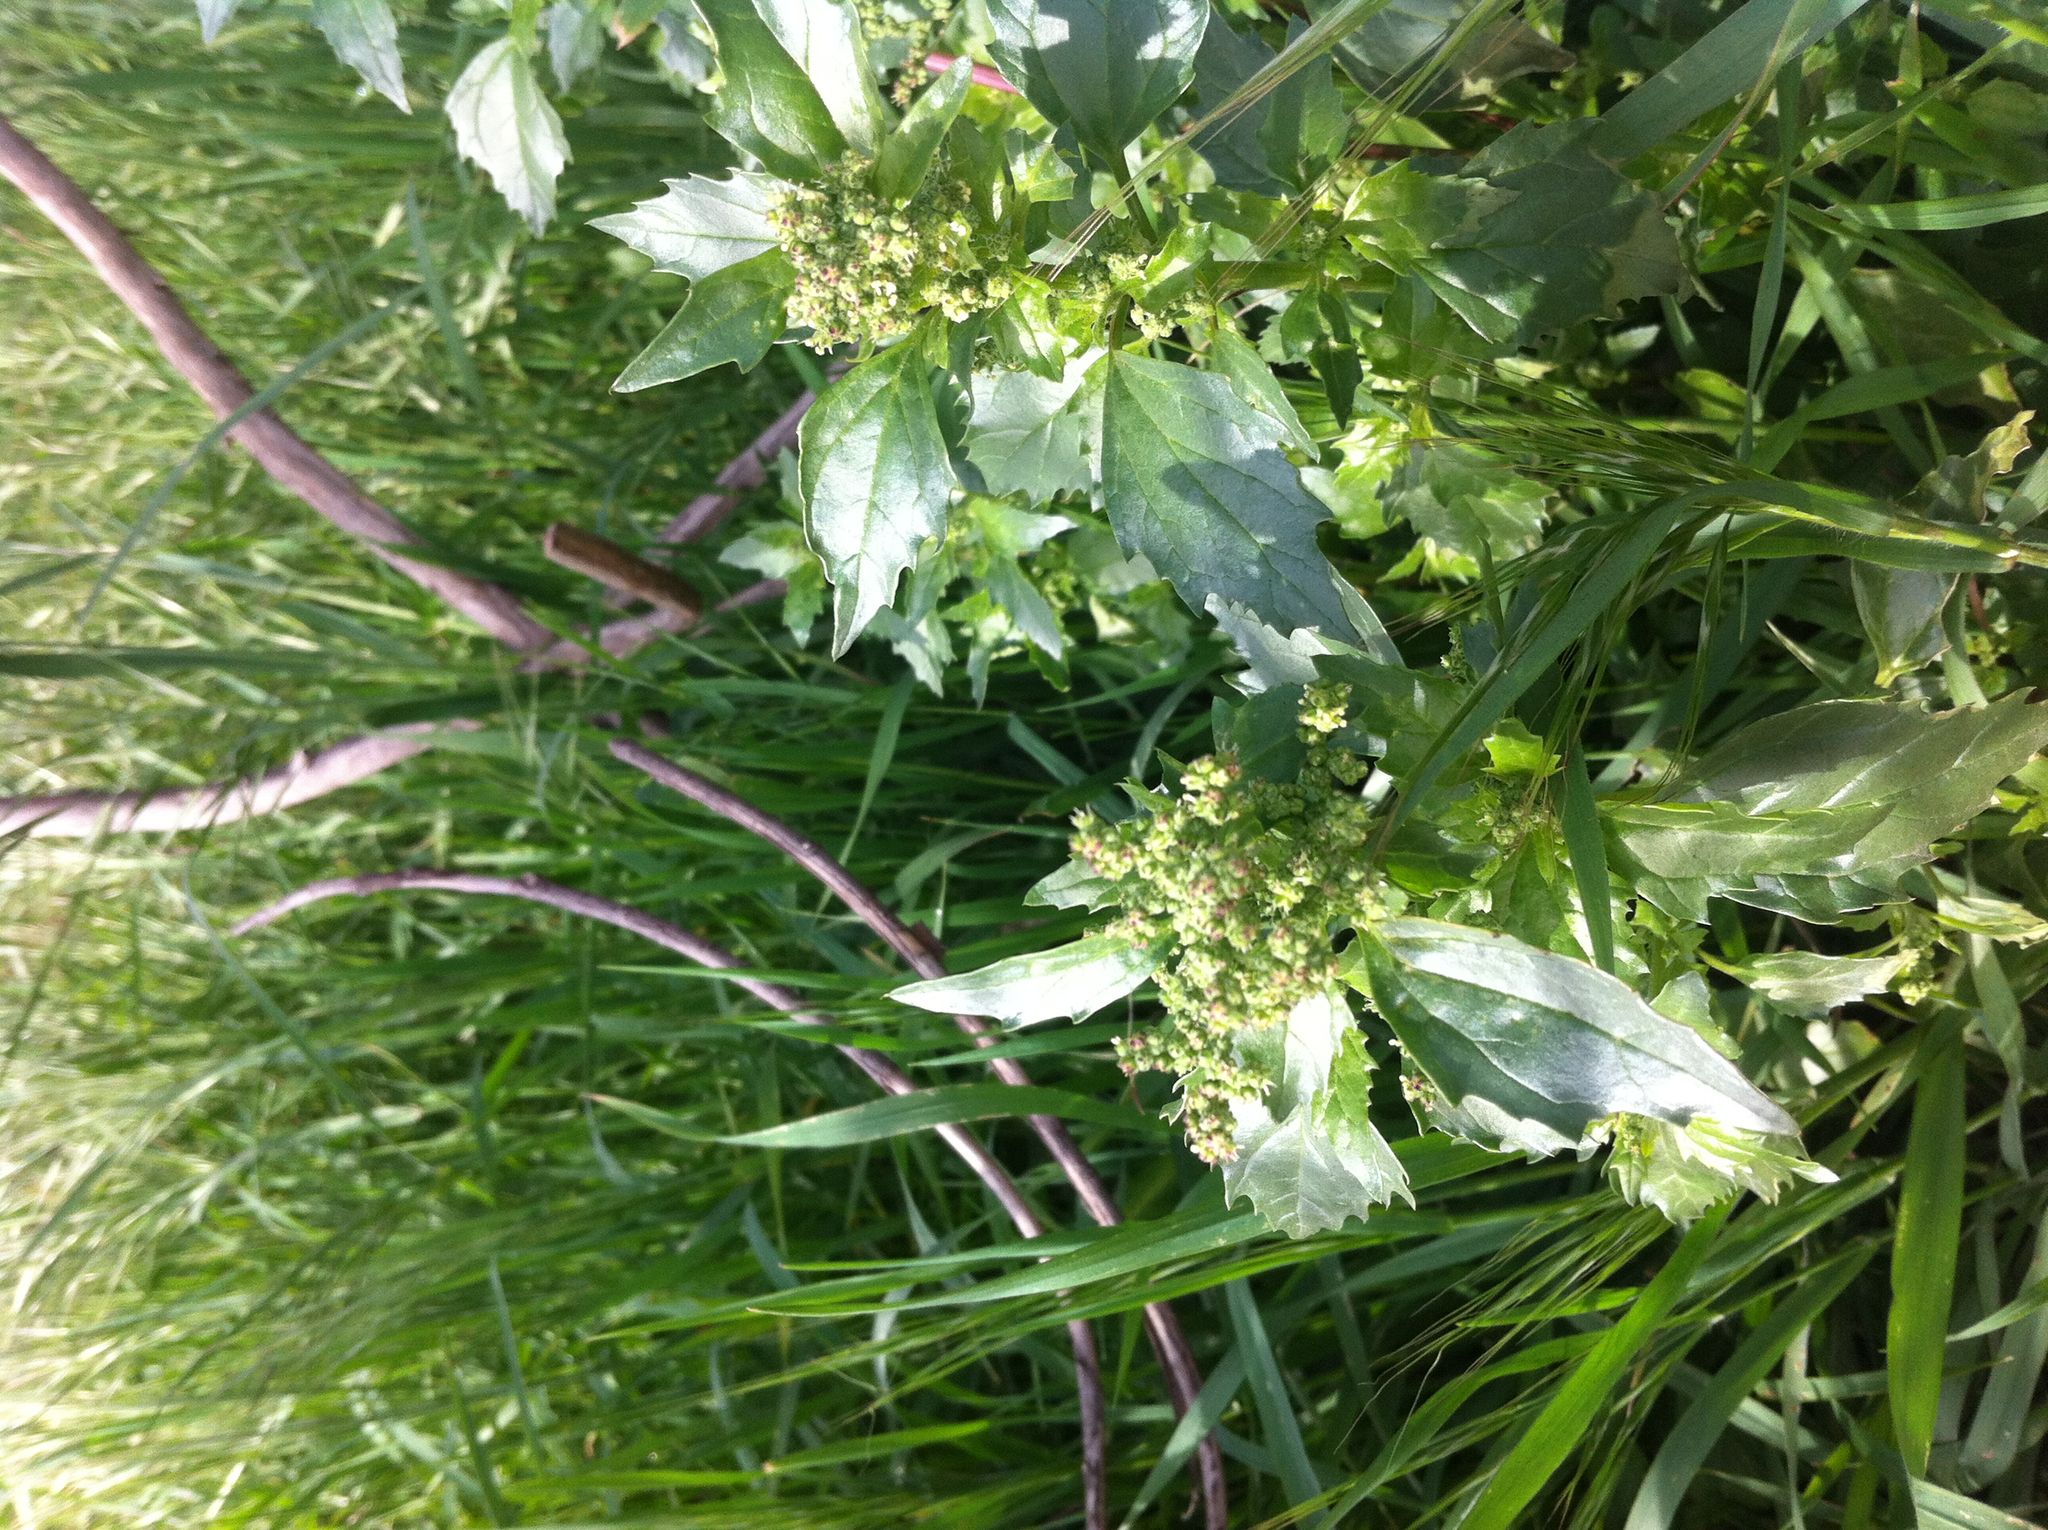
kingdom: Plantae
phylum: Tracheophyta
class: Magnoliopsida
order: Caryophyllales
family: Amaranthaceae
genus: Chenopodiastrum
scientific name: Chenopodiastrum murale
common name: Sowbane
